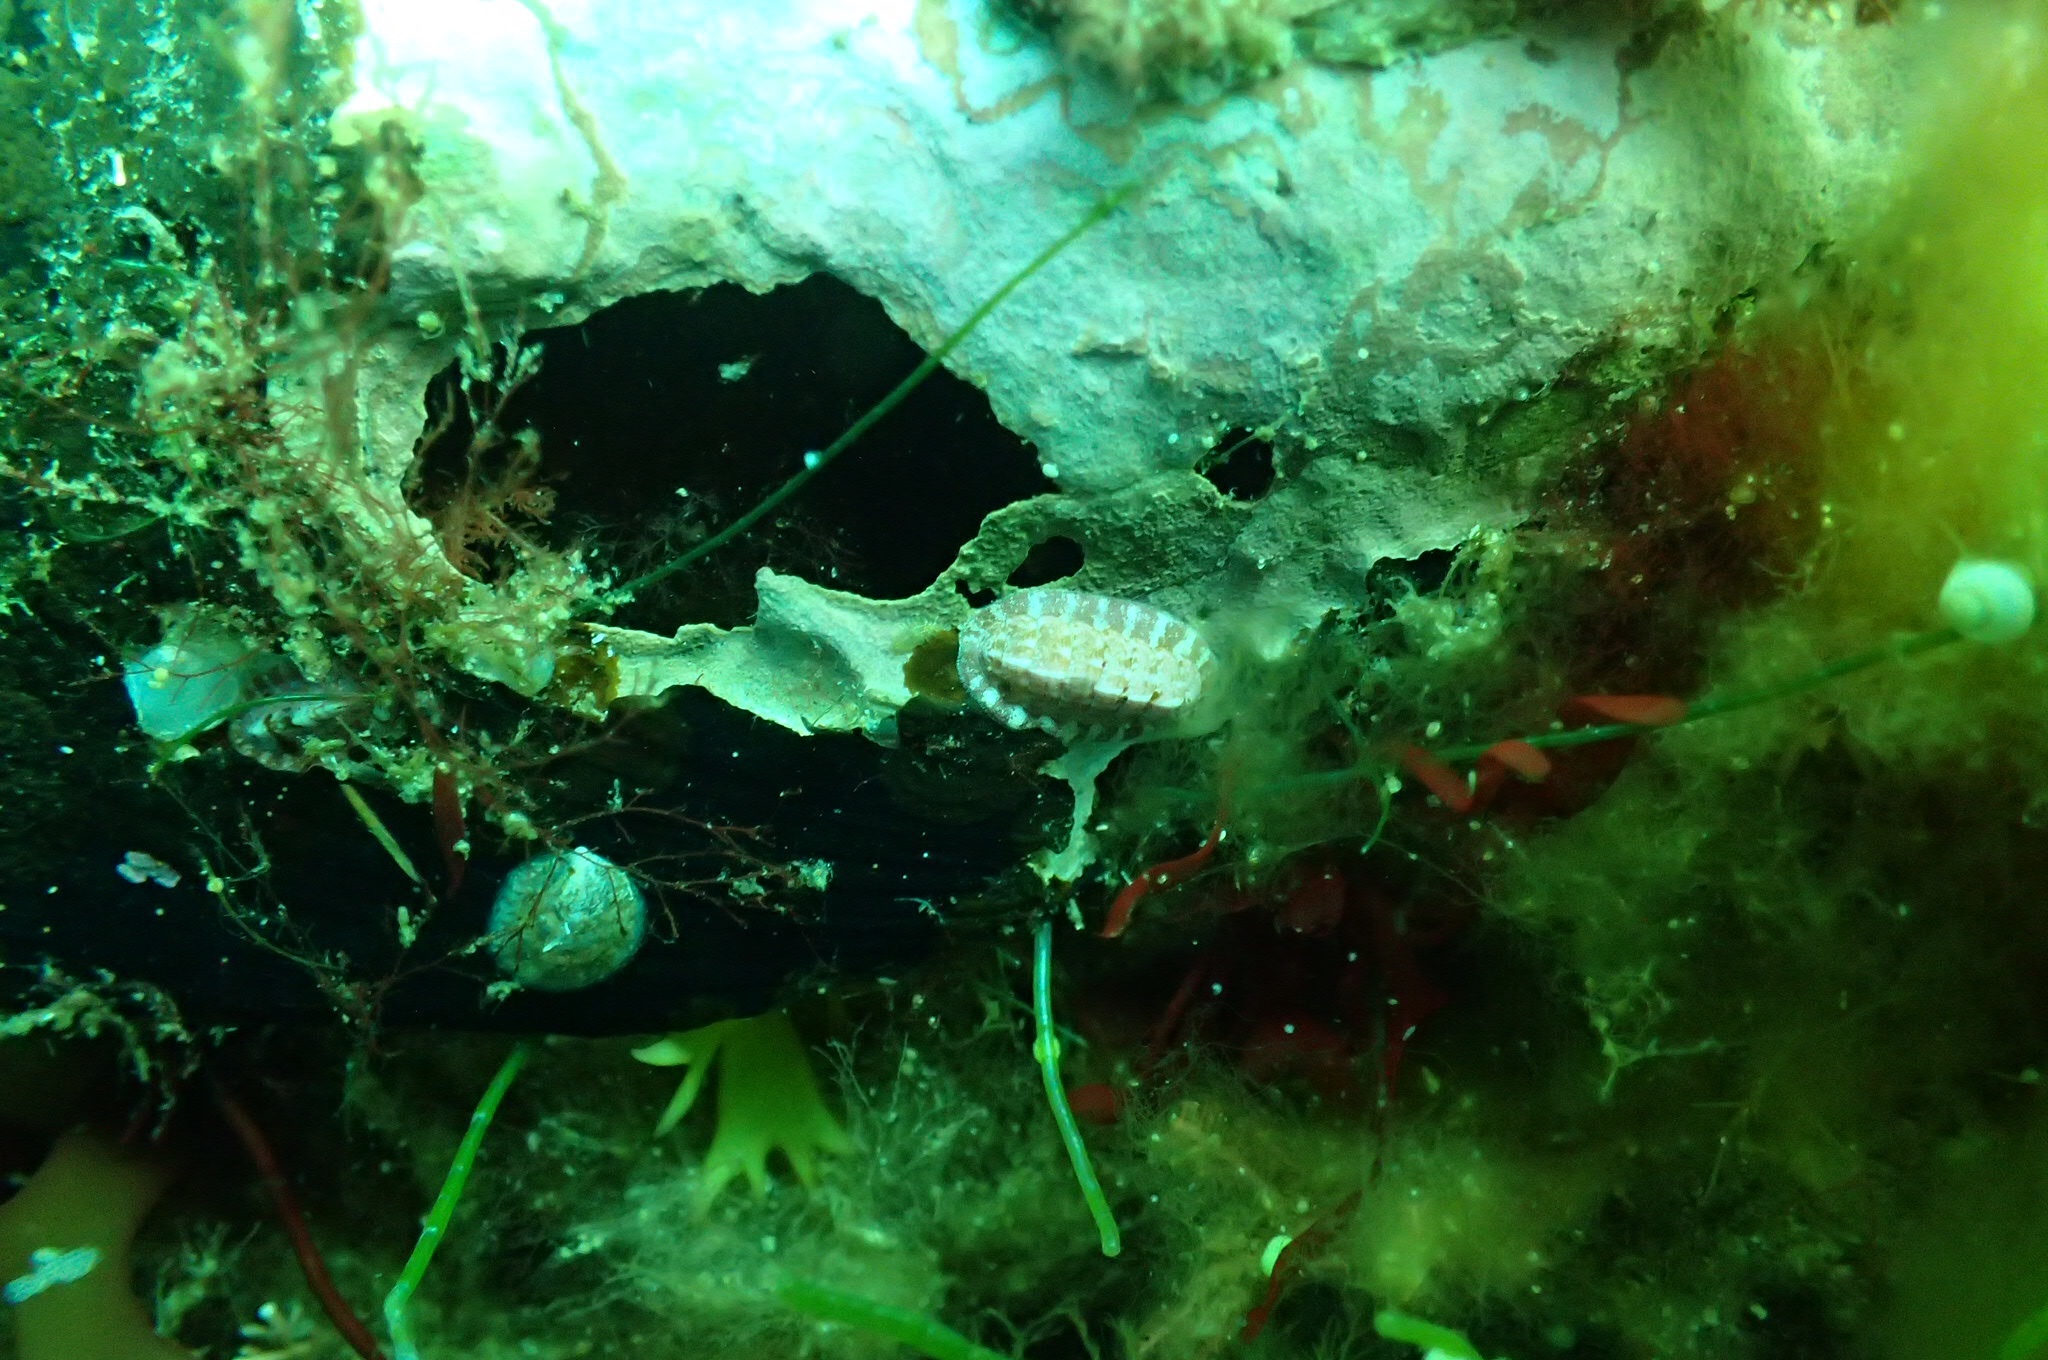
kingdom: Animalia
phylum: Mollusca
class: Polyplacophora
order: Chitonida
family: Tonicellidae
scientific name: Tonicellidae
